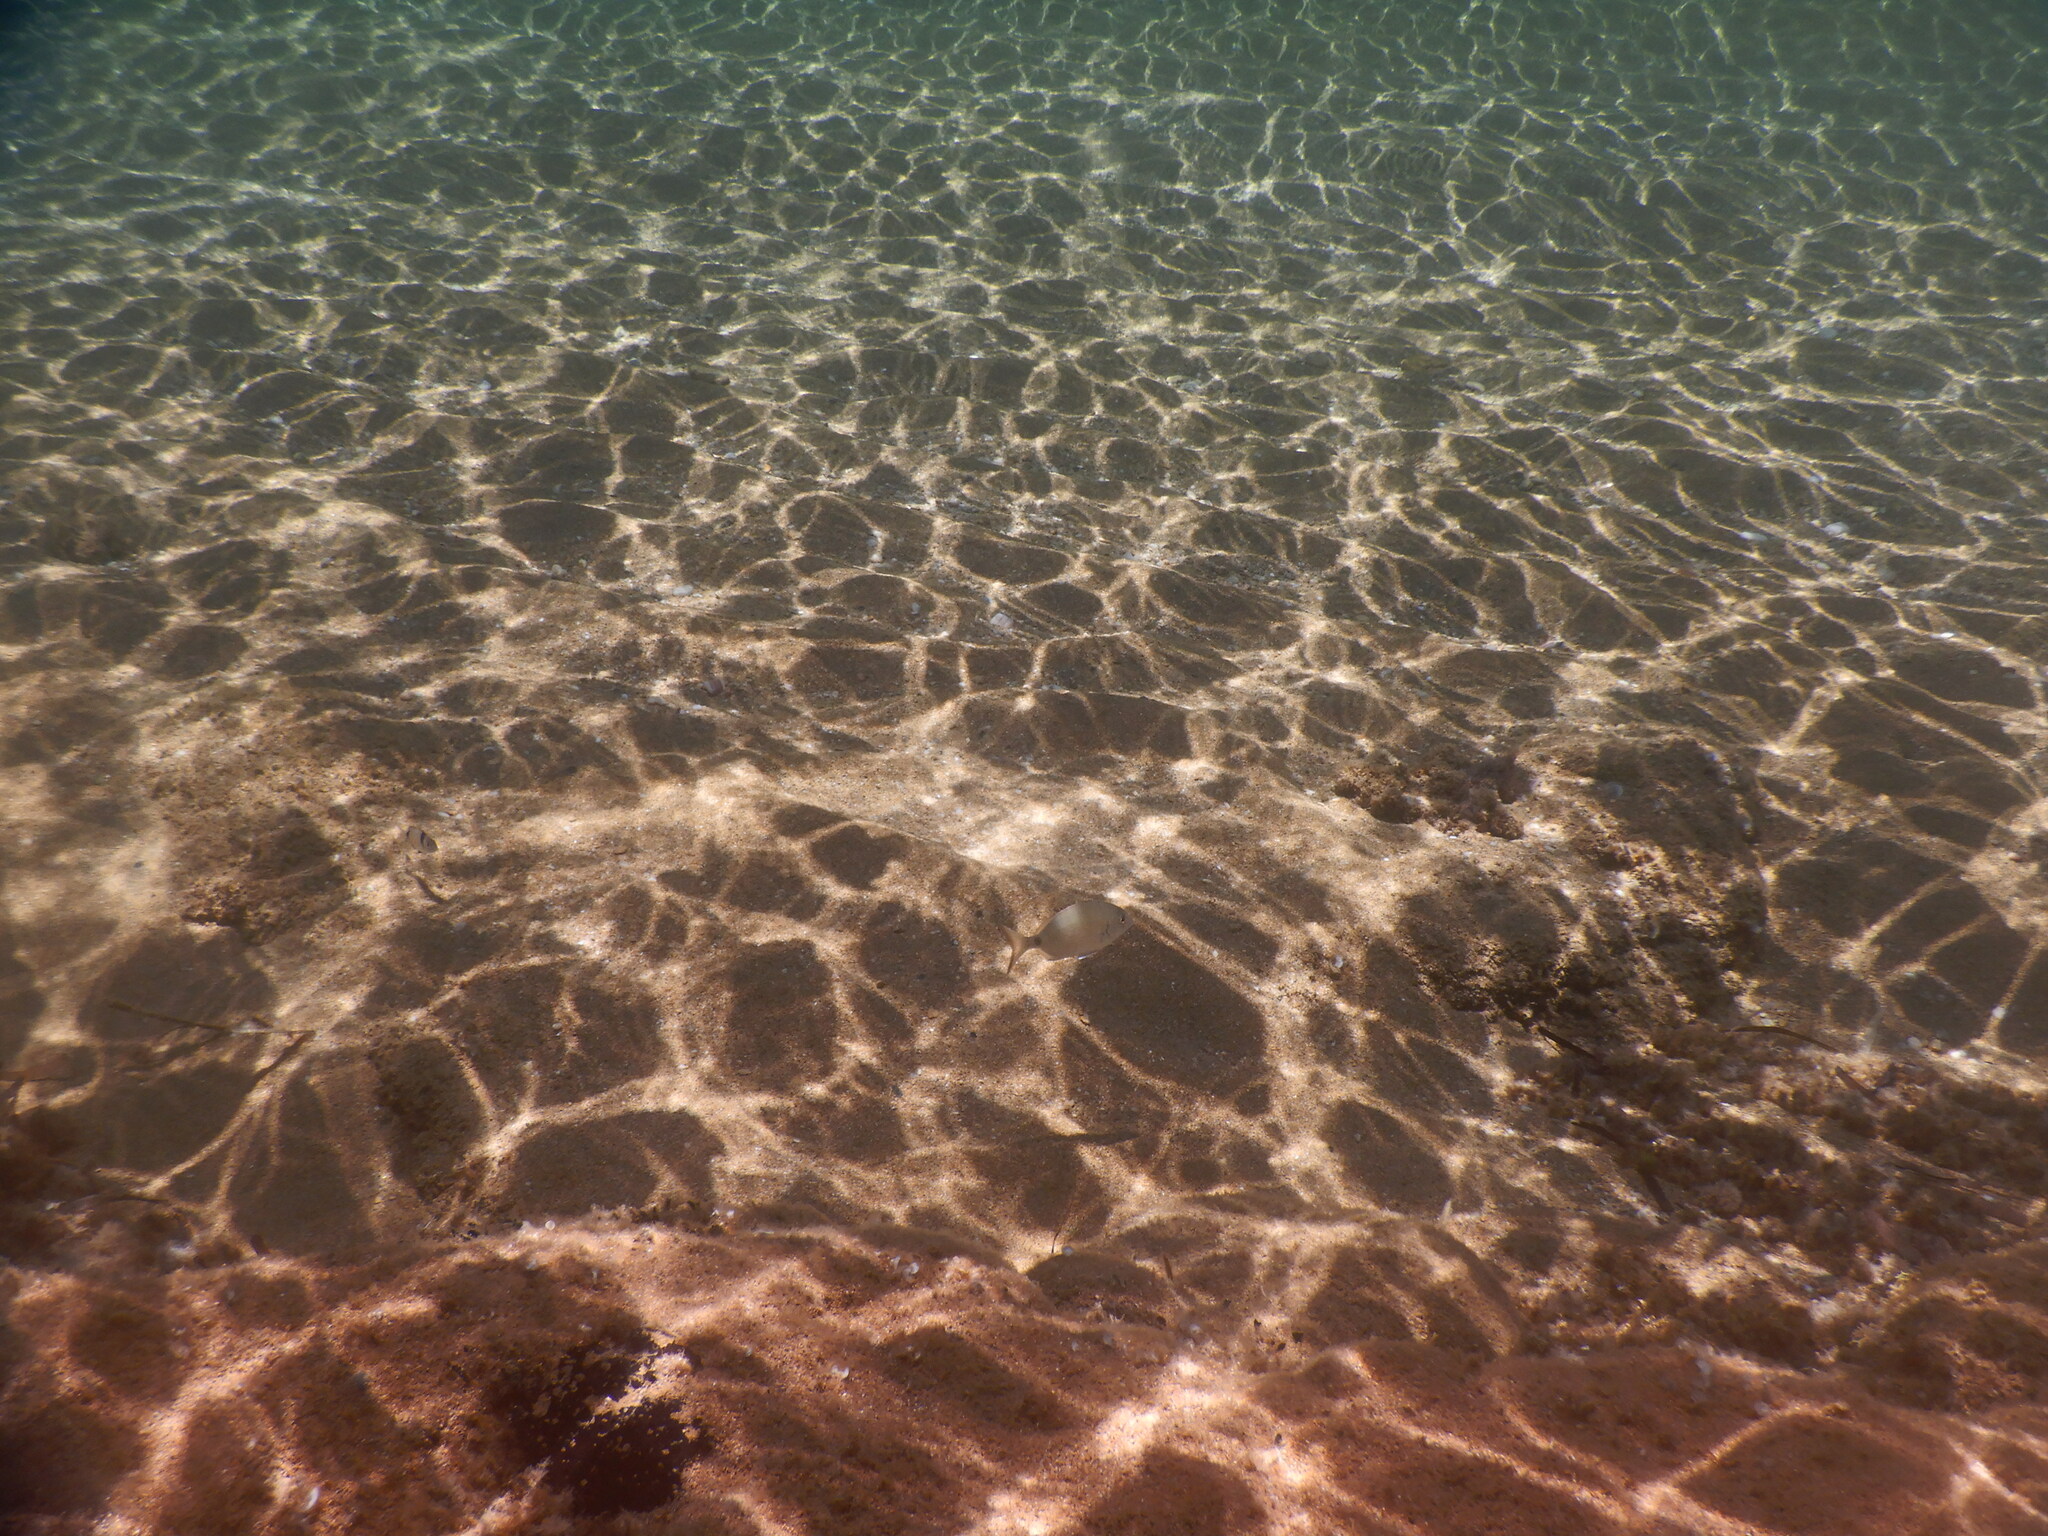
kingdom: Animalia
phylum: Chordata
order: Perciformes
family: Sparidae
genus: Diplodus
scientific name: Diplodus sargus
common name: White seabream
